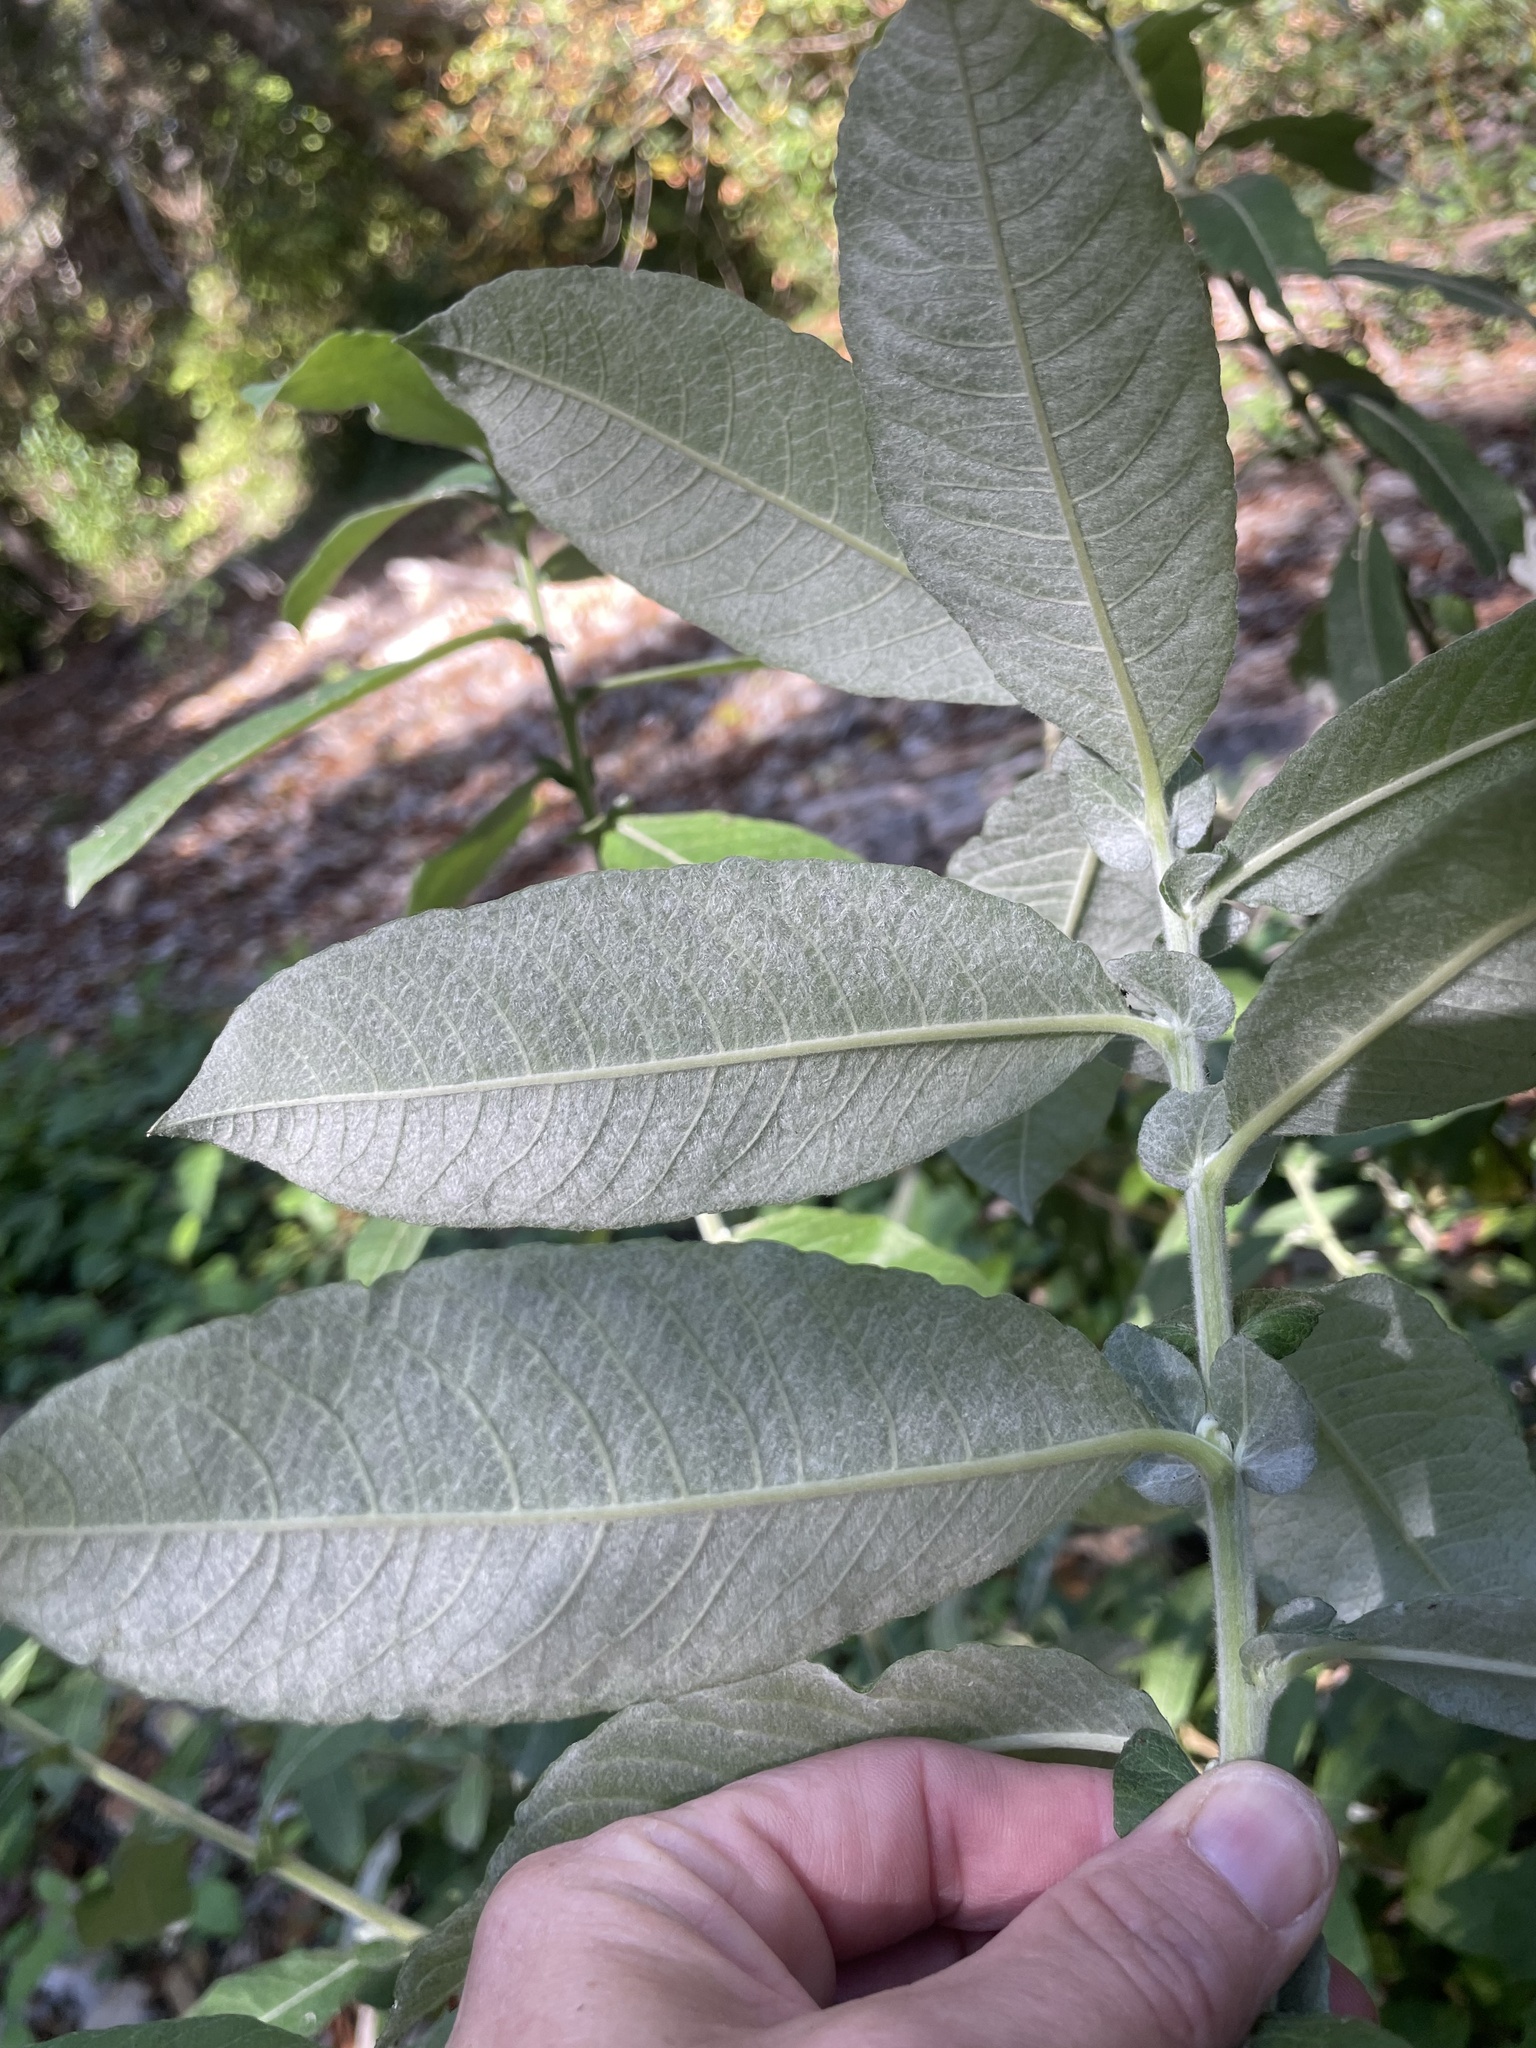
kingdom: Plantae
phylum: Tracheophyta
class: Magnoliopsida
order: Malpighiales
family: Salicaceae
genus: Salix
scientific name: Salix sitchensis
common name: Sitka willow
